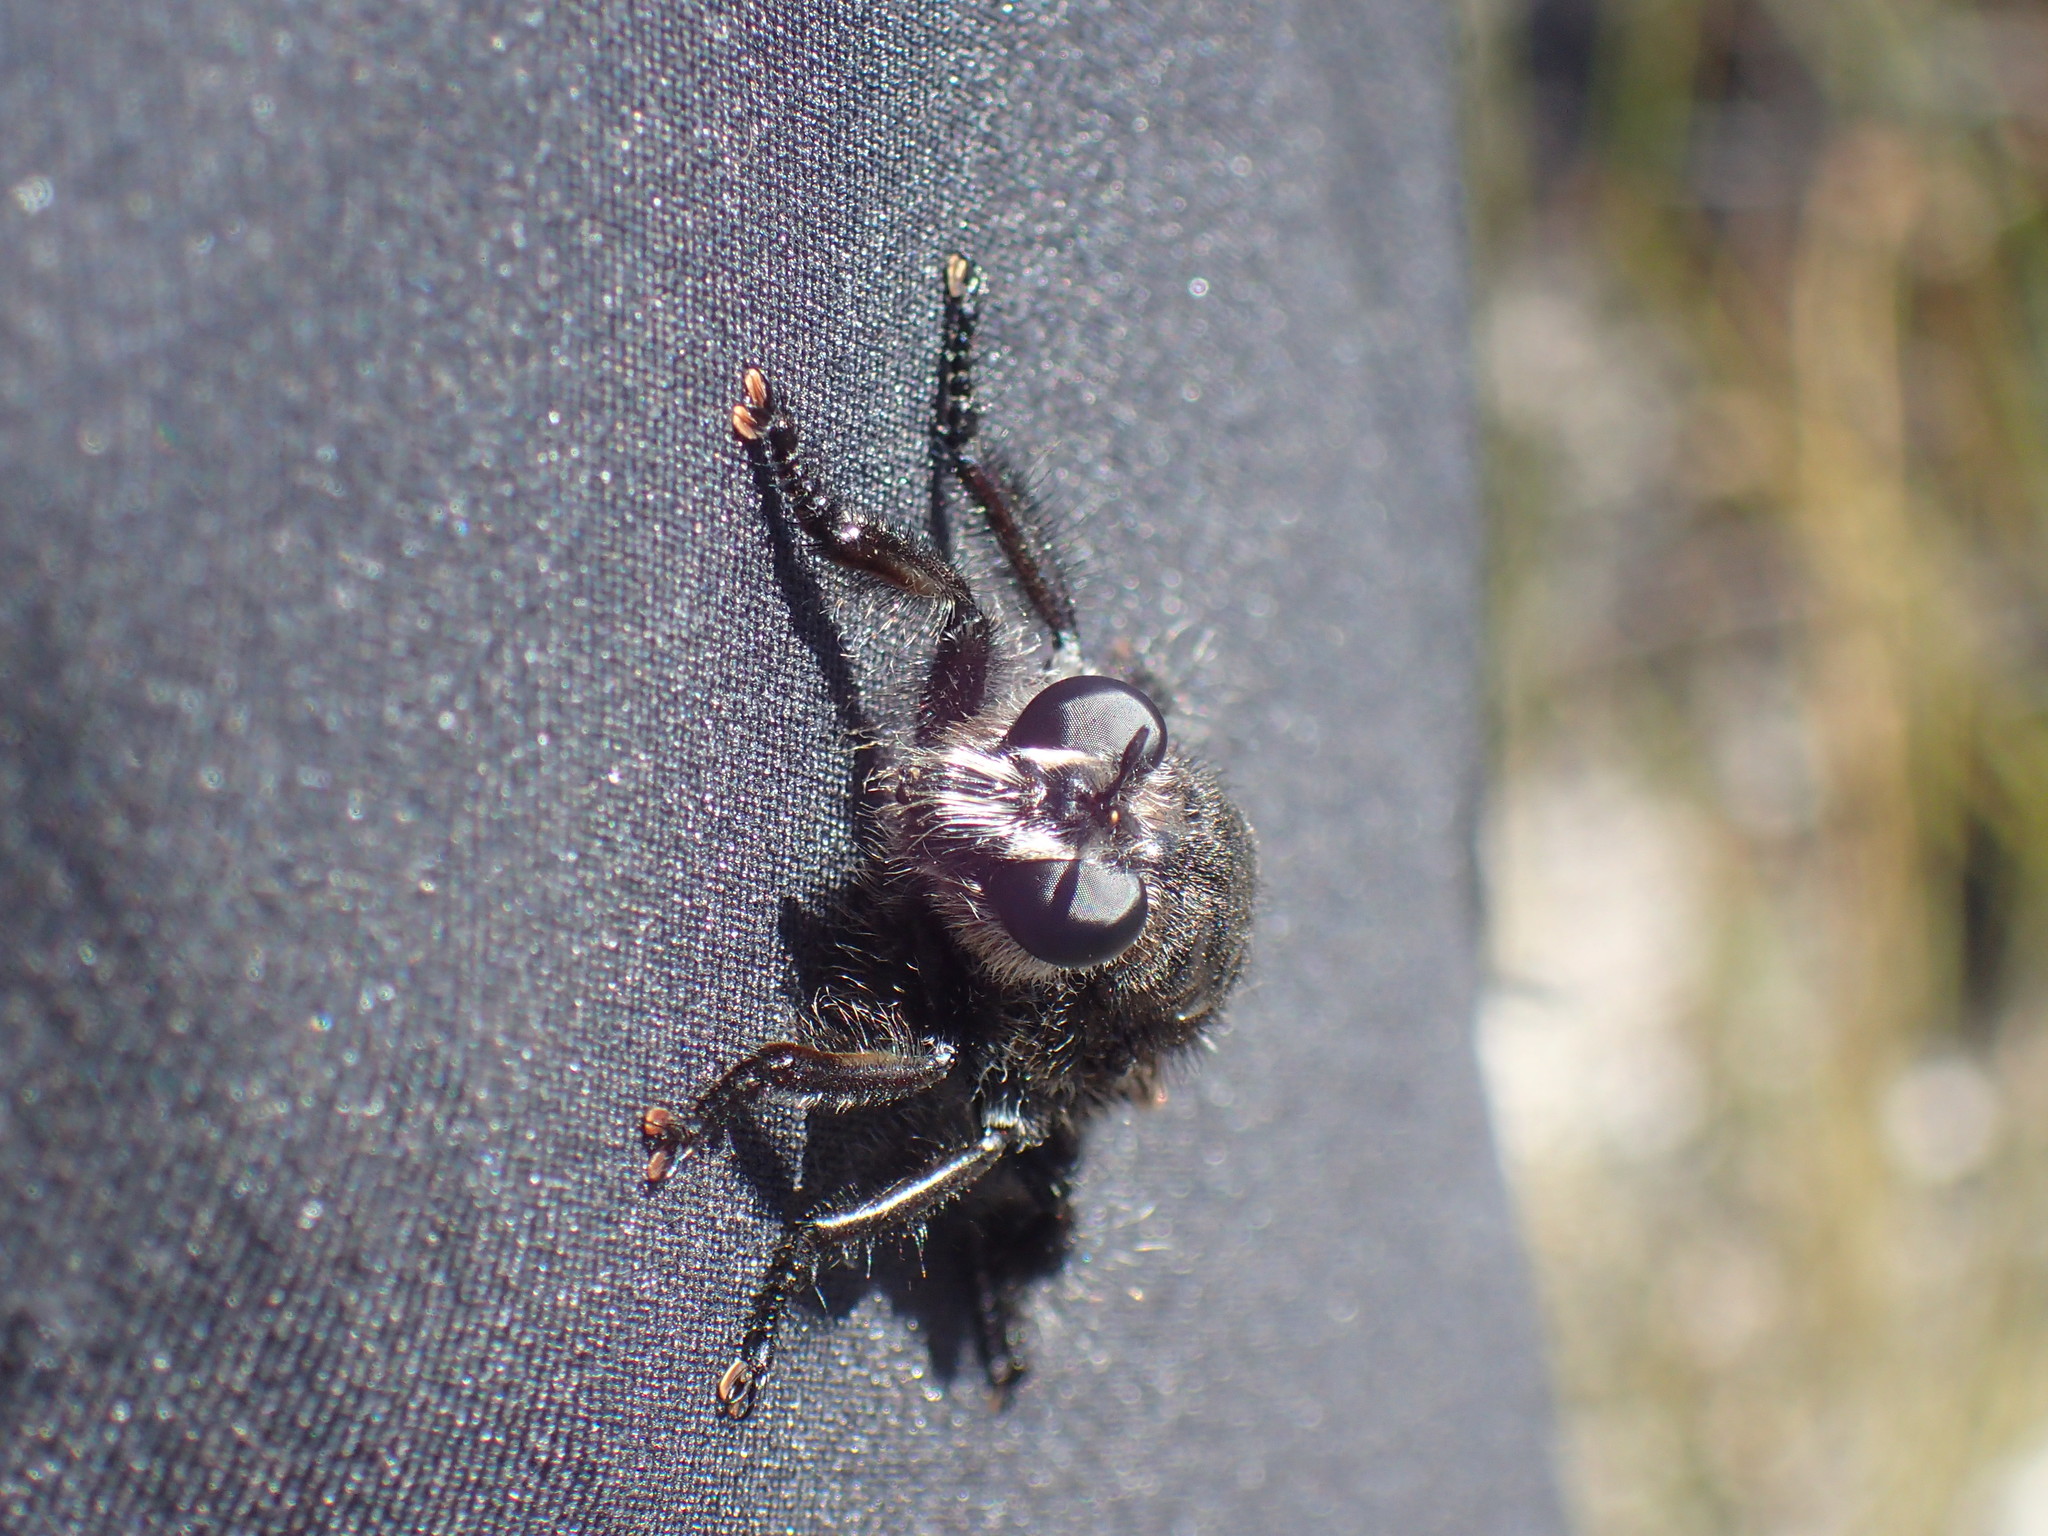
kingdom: Animalia
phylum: Arthropoda
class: Insecta
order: Diptera
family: Asilidae
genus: Hyperechia
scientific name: Hyperechia imitator
